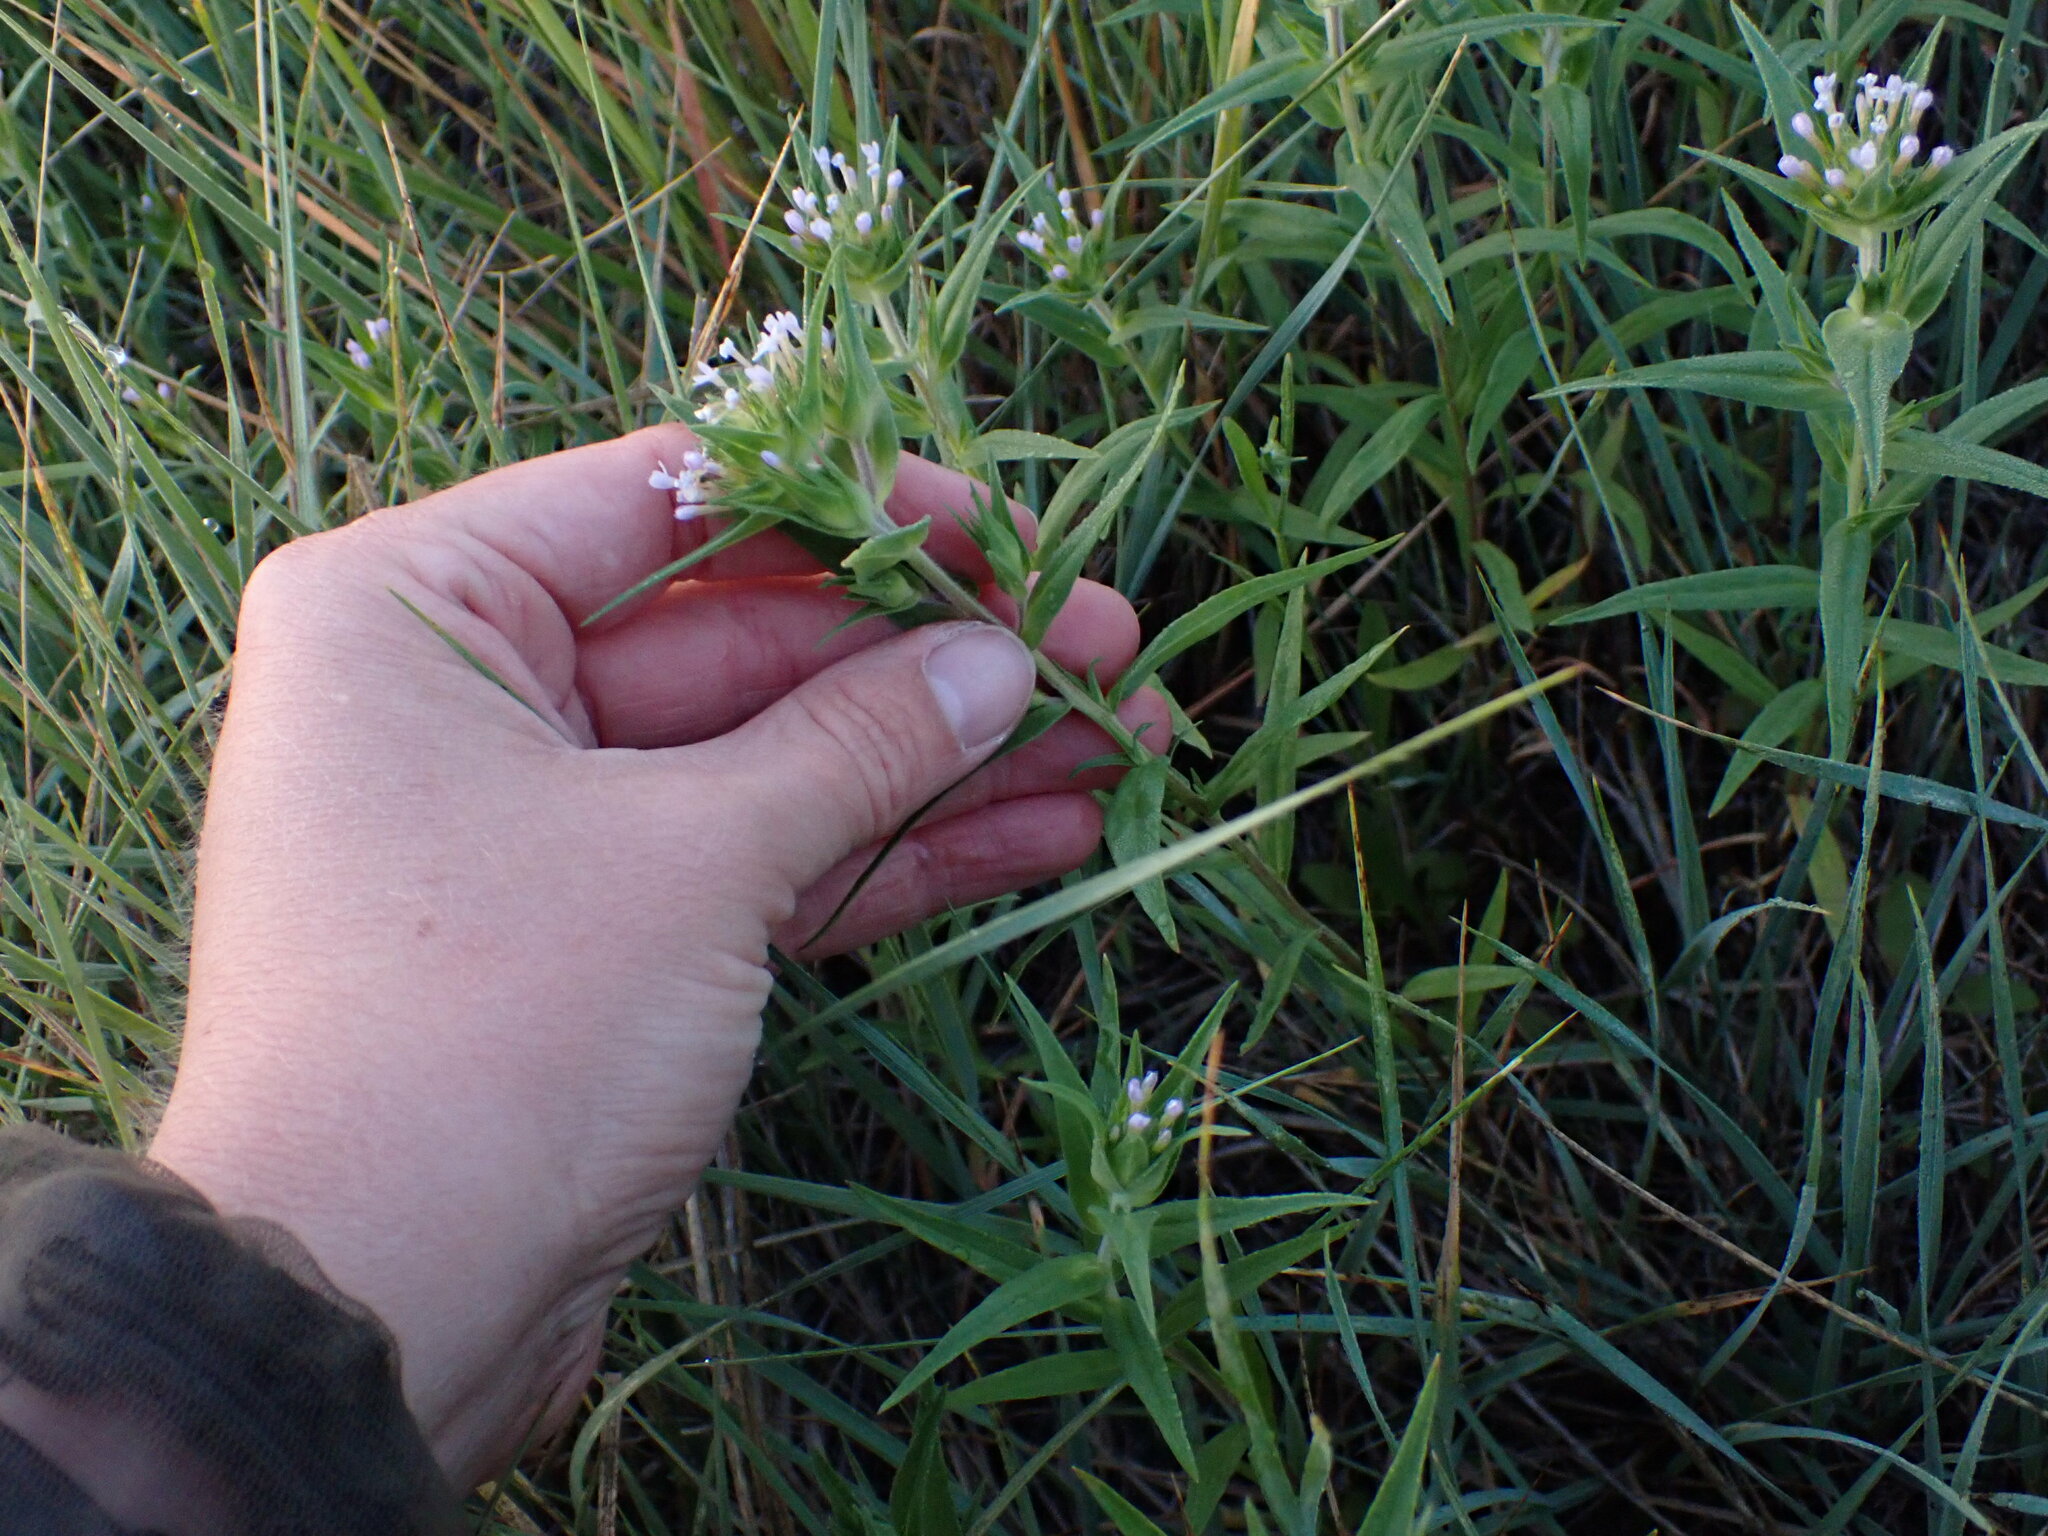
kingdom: Plantae
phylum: Tracheophyta
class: Magnoliopsida
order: Ericales
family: Polemoniaceae
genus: Collomia
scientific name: Collomia linearis
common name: Tiny trumpet
